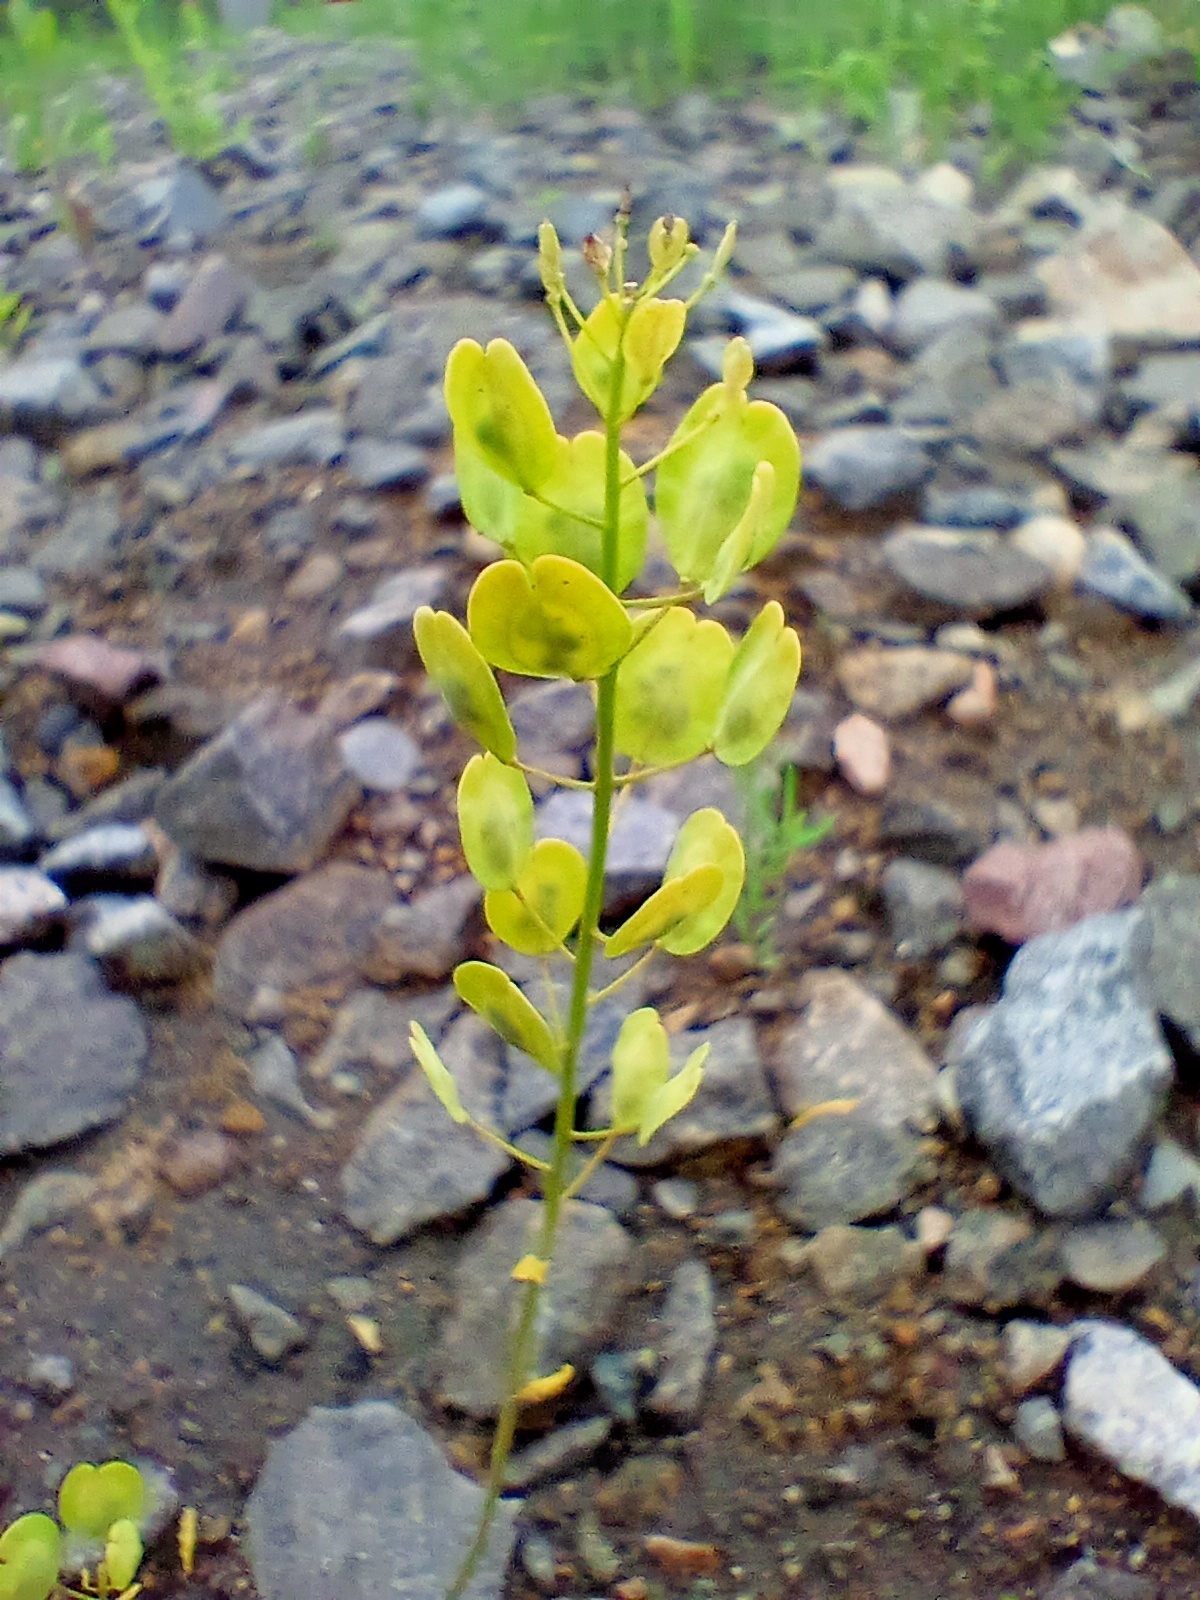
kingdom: Plantae
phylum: Tracheophyta
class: Magnoliopsida
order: Brassicales
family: Brassicaceae
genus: Thlaspi
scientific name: Thlaspi arvense
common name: Field pennycress
